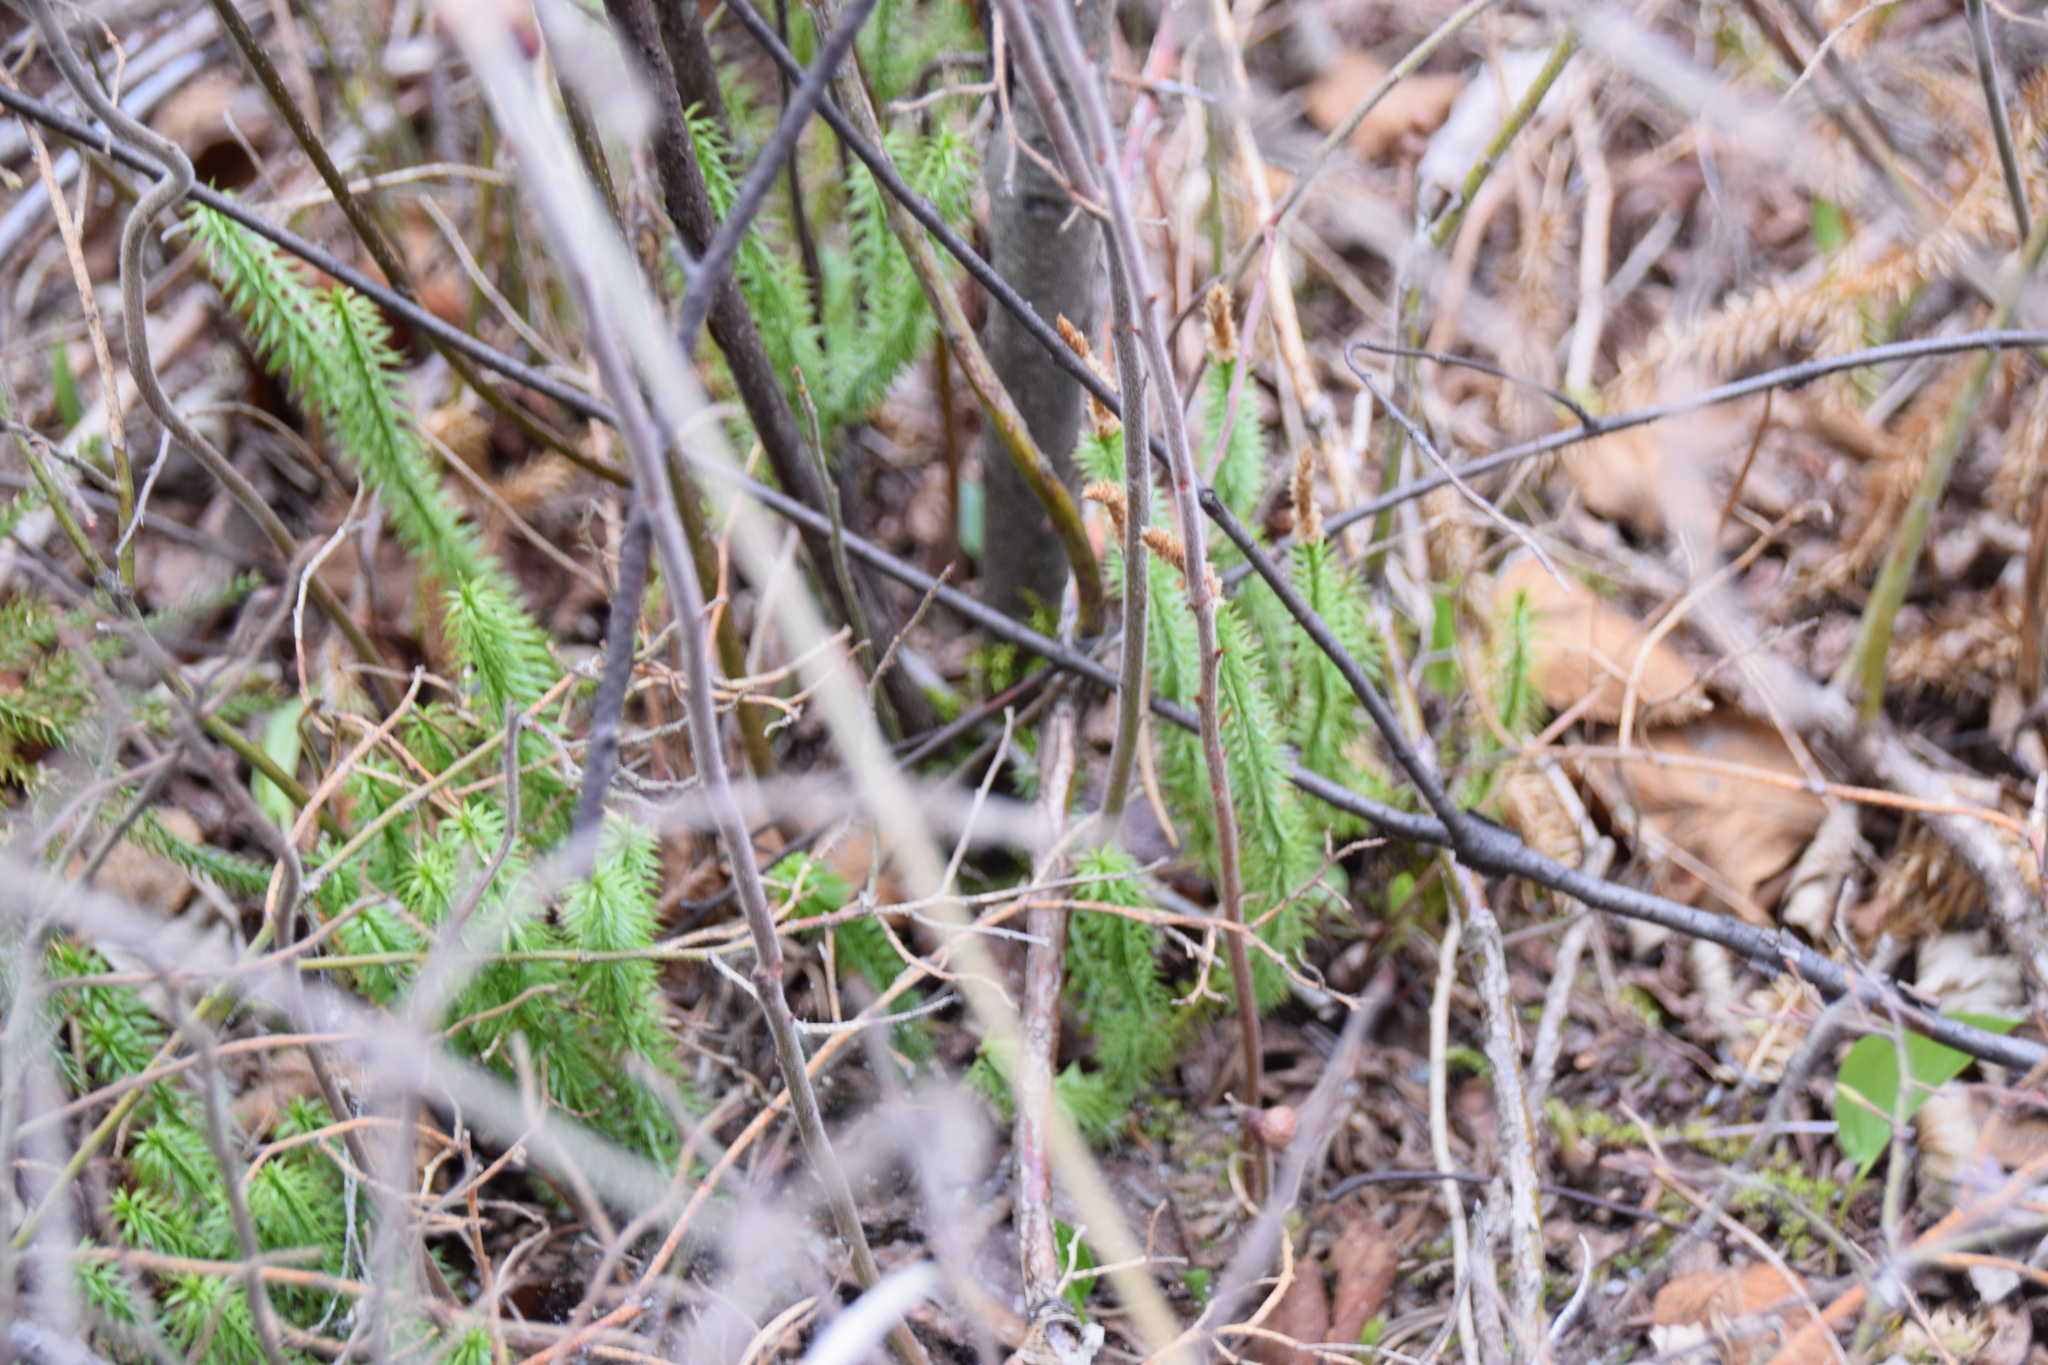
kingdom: Plantae
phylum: Tracheophyta
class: Lycopodiopsida
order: Lycopodiales
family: Lycopodiaceae
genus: Spinulum
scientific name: Spinulum annotinum
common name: Interrupted club-moss
